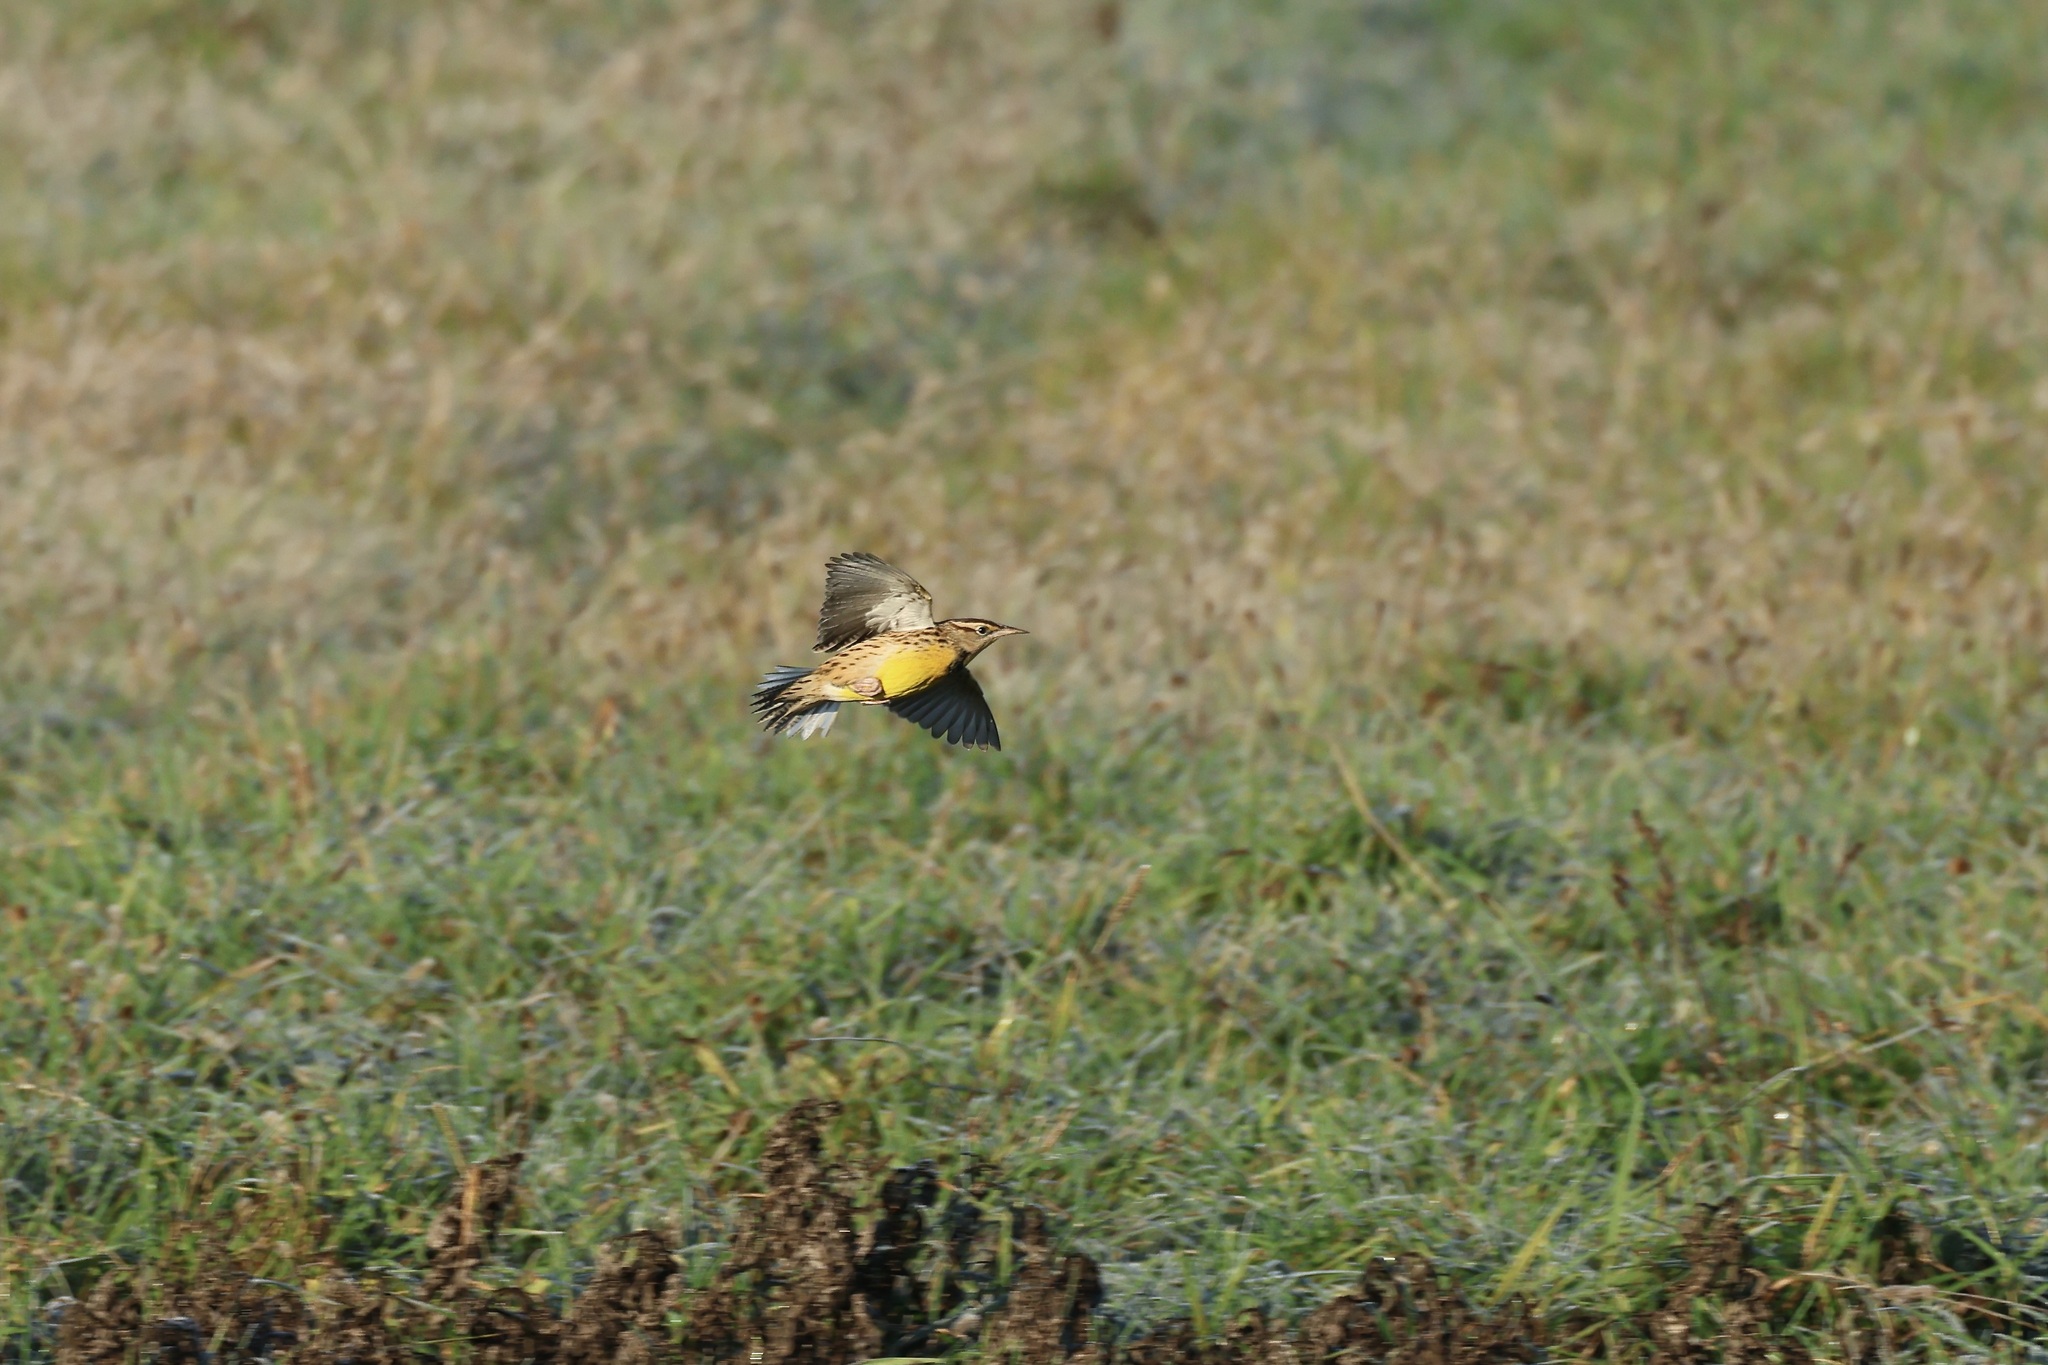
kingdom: Animalia
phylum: Chordata
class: Aves
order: Passeriformes
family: Icteridae
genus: Sturnella
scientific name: Sturnella magna
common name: Eastern meadowlark
